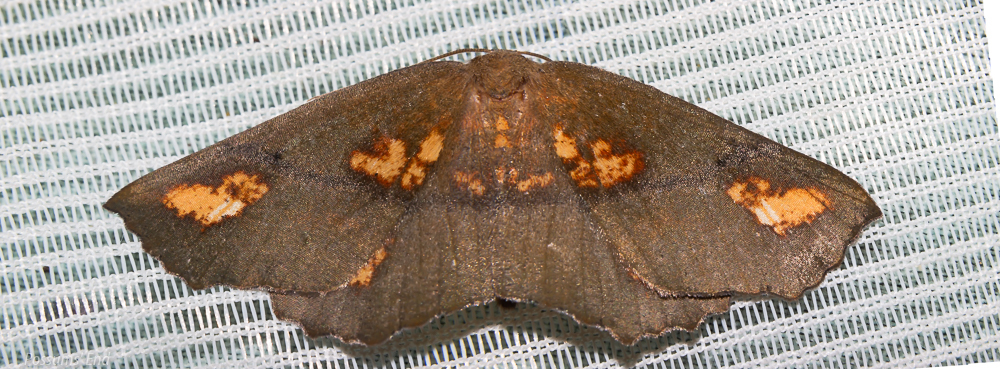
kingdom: Animalia
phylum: Arthropoda
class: Insecta
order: Lepidoptera
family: Geometridae
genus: Xyridacma
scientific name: Xyridacma ustaria
